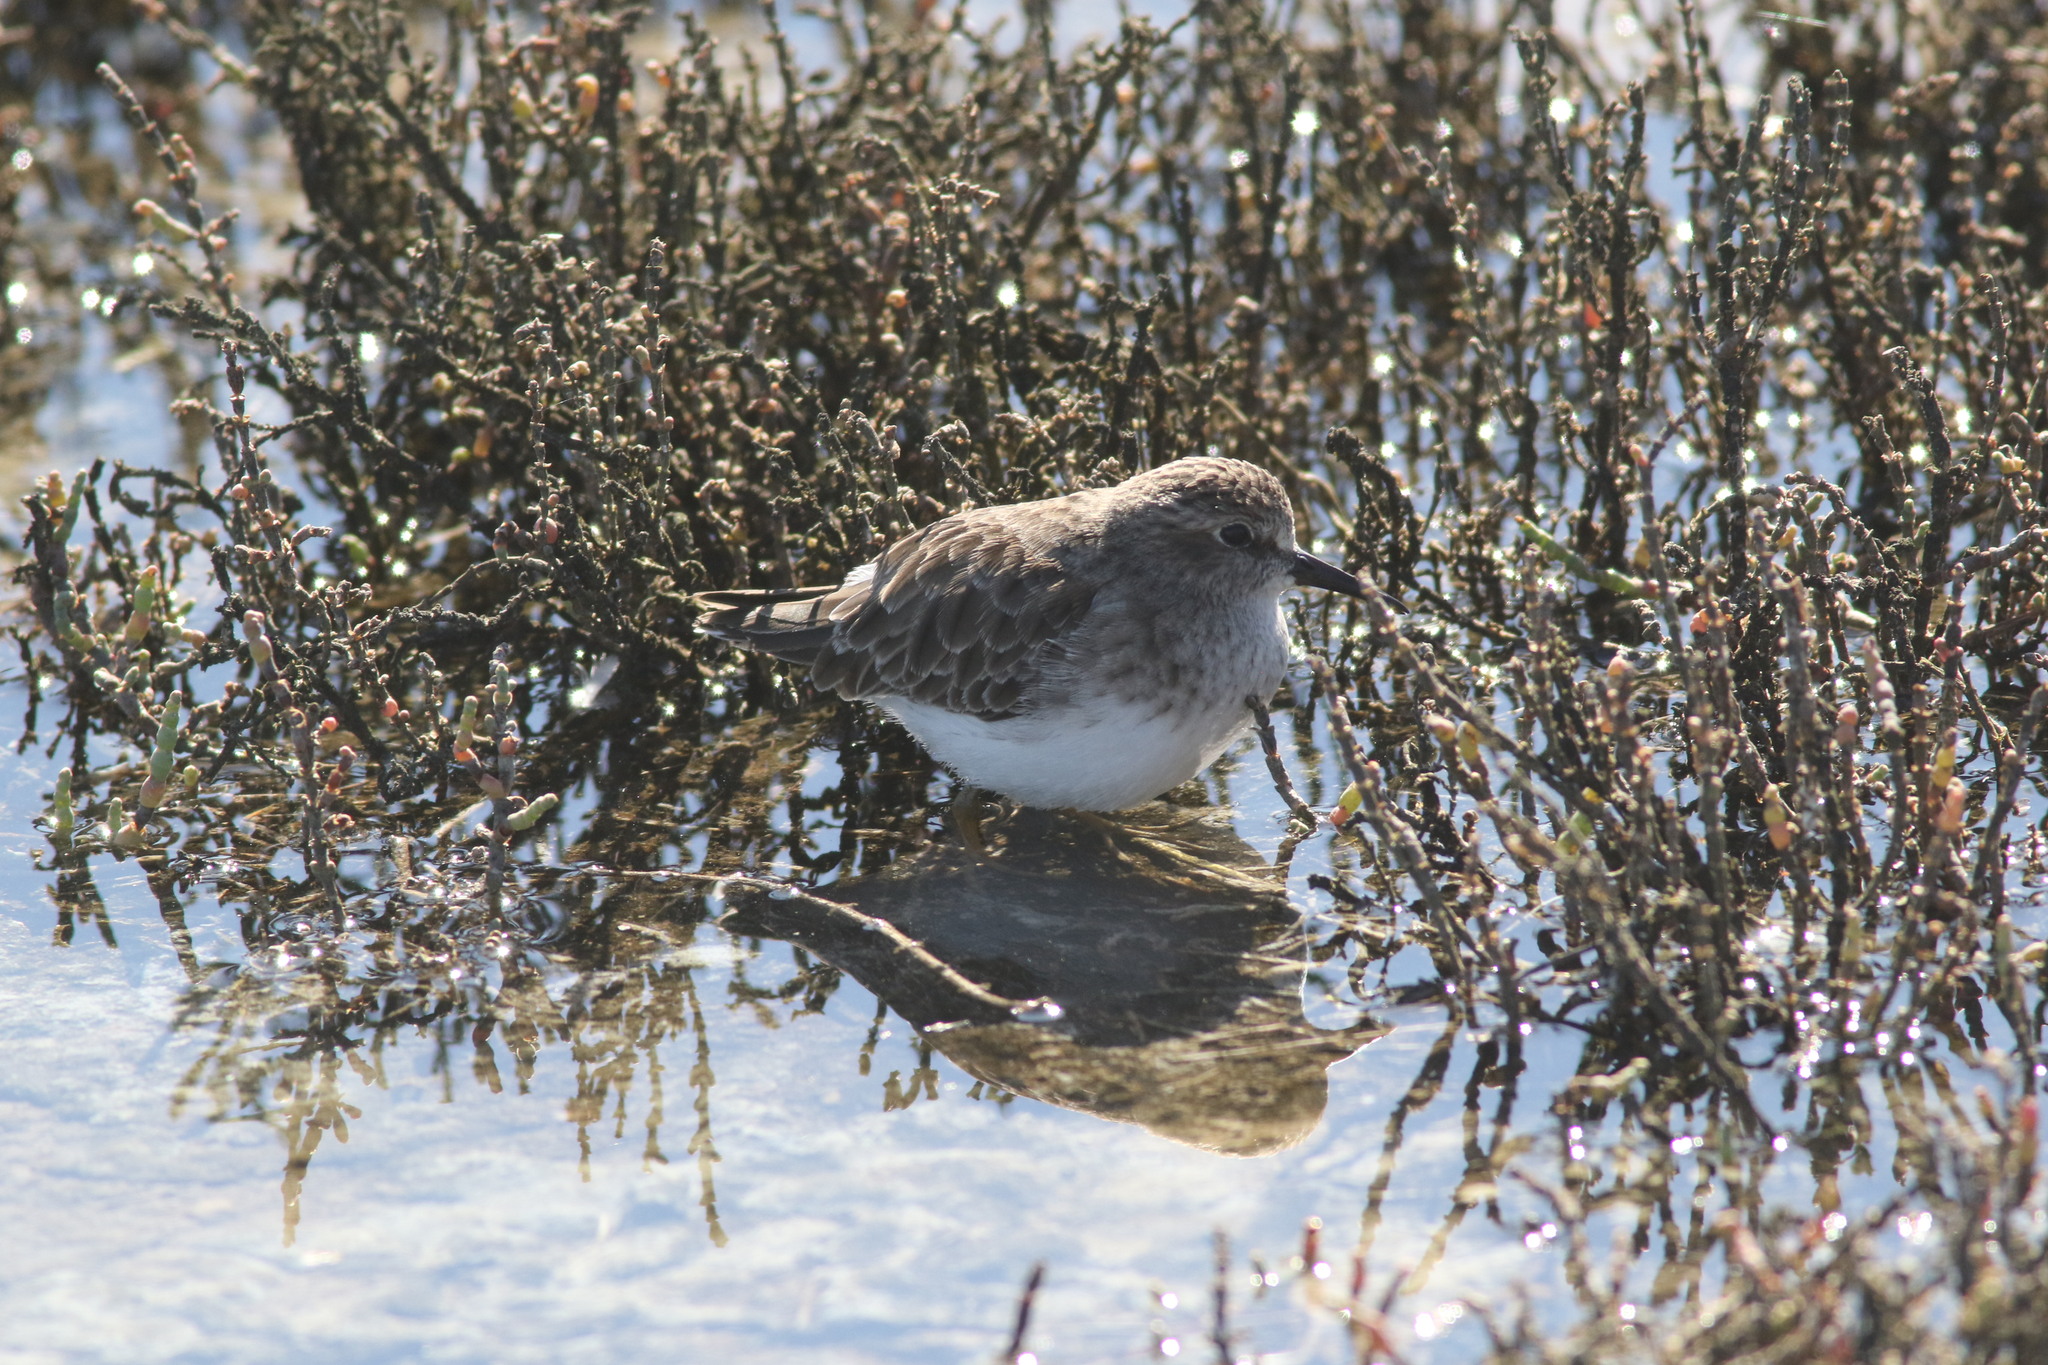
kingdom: Animalia
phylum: Chordata
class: Aves
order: Charadriiformes
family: Scolopacidae
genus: Calidris
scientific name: Calidris minutilla
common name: Least sandpiper
